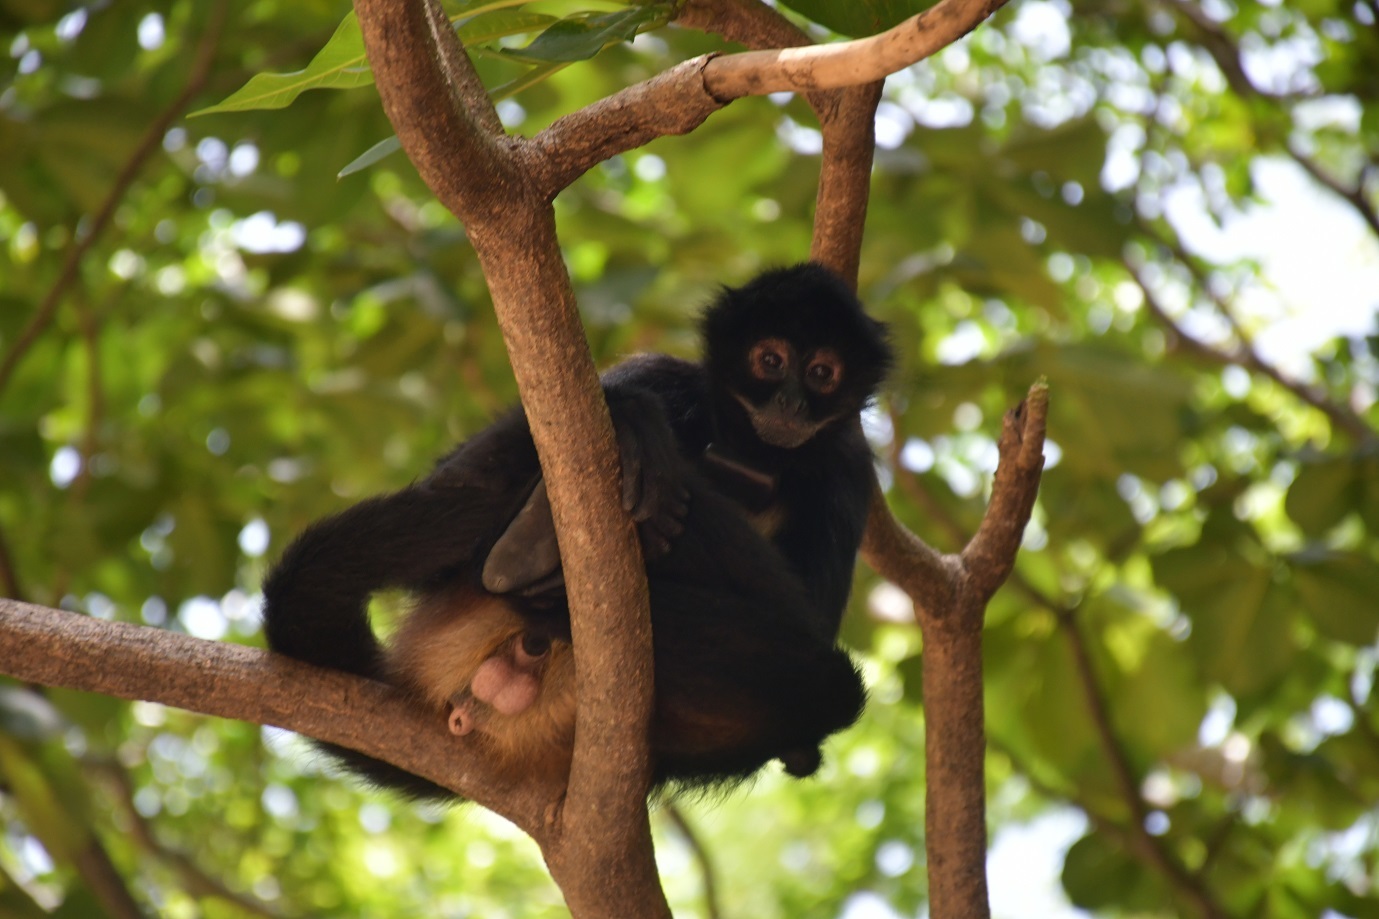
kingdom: Animalia
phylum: Chordata
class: Mammalia
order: Primates
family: Atelidae
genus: Ateles
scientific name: Ateles geoffroyi
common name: Black-handed spider monkey
